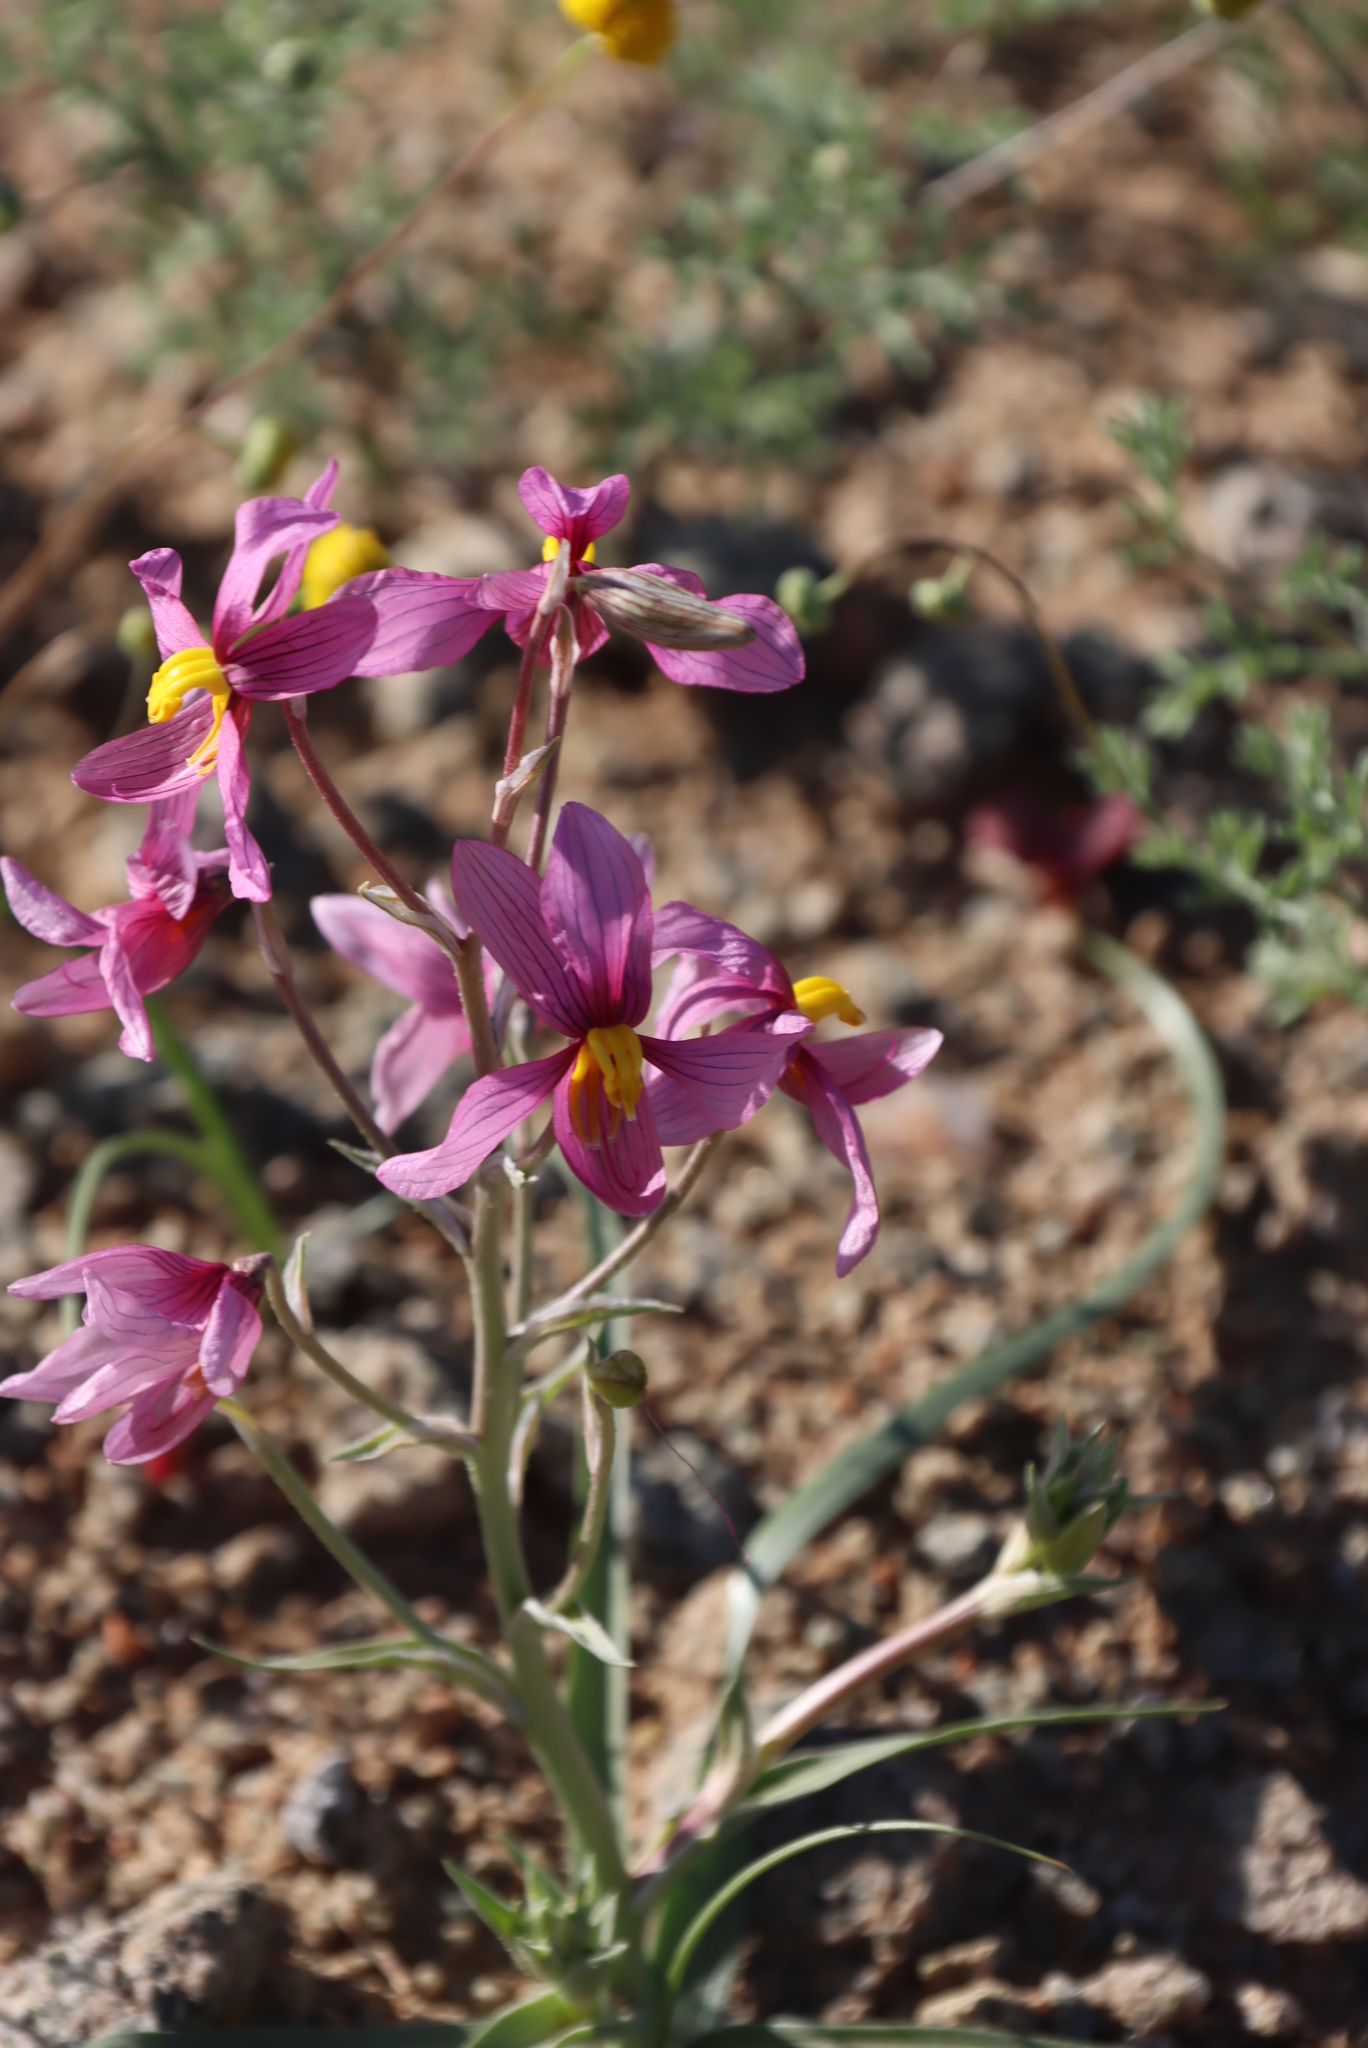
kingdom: Plantae
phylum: Tracheophyta
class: Liliopsida
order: Asparagales
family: Tecophilaeaceae
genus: Cyanella
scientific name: Cyanella ramosissima
